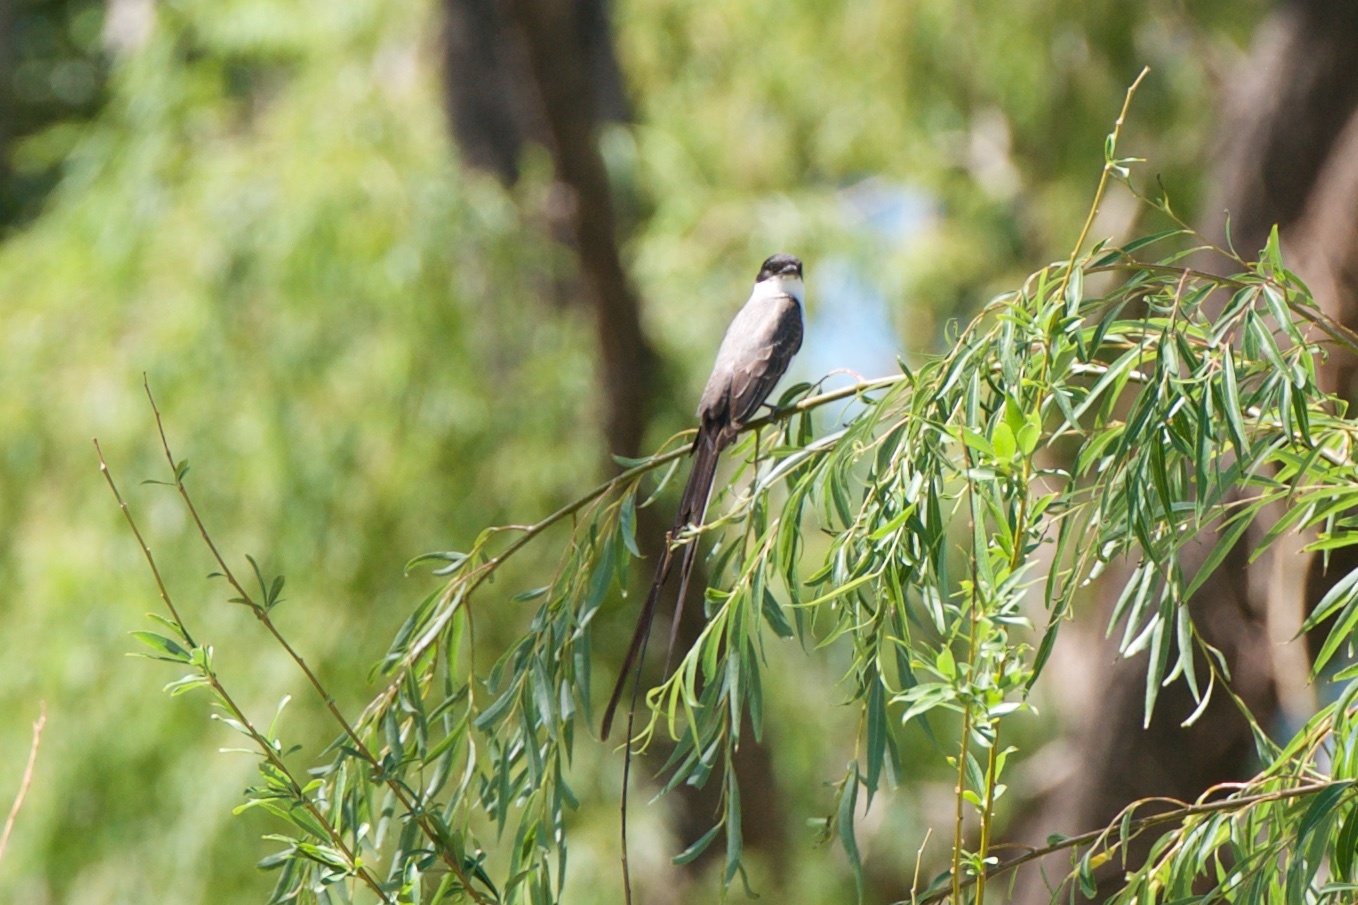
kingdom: Animalia
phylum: Chordata
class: Aves
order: Passeriformes
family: Tyrannidae
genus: Tyrannus
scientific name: Tyrannus savana
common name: Fork-tailed flycatcher
